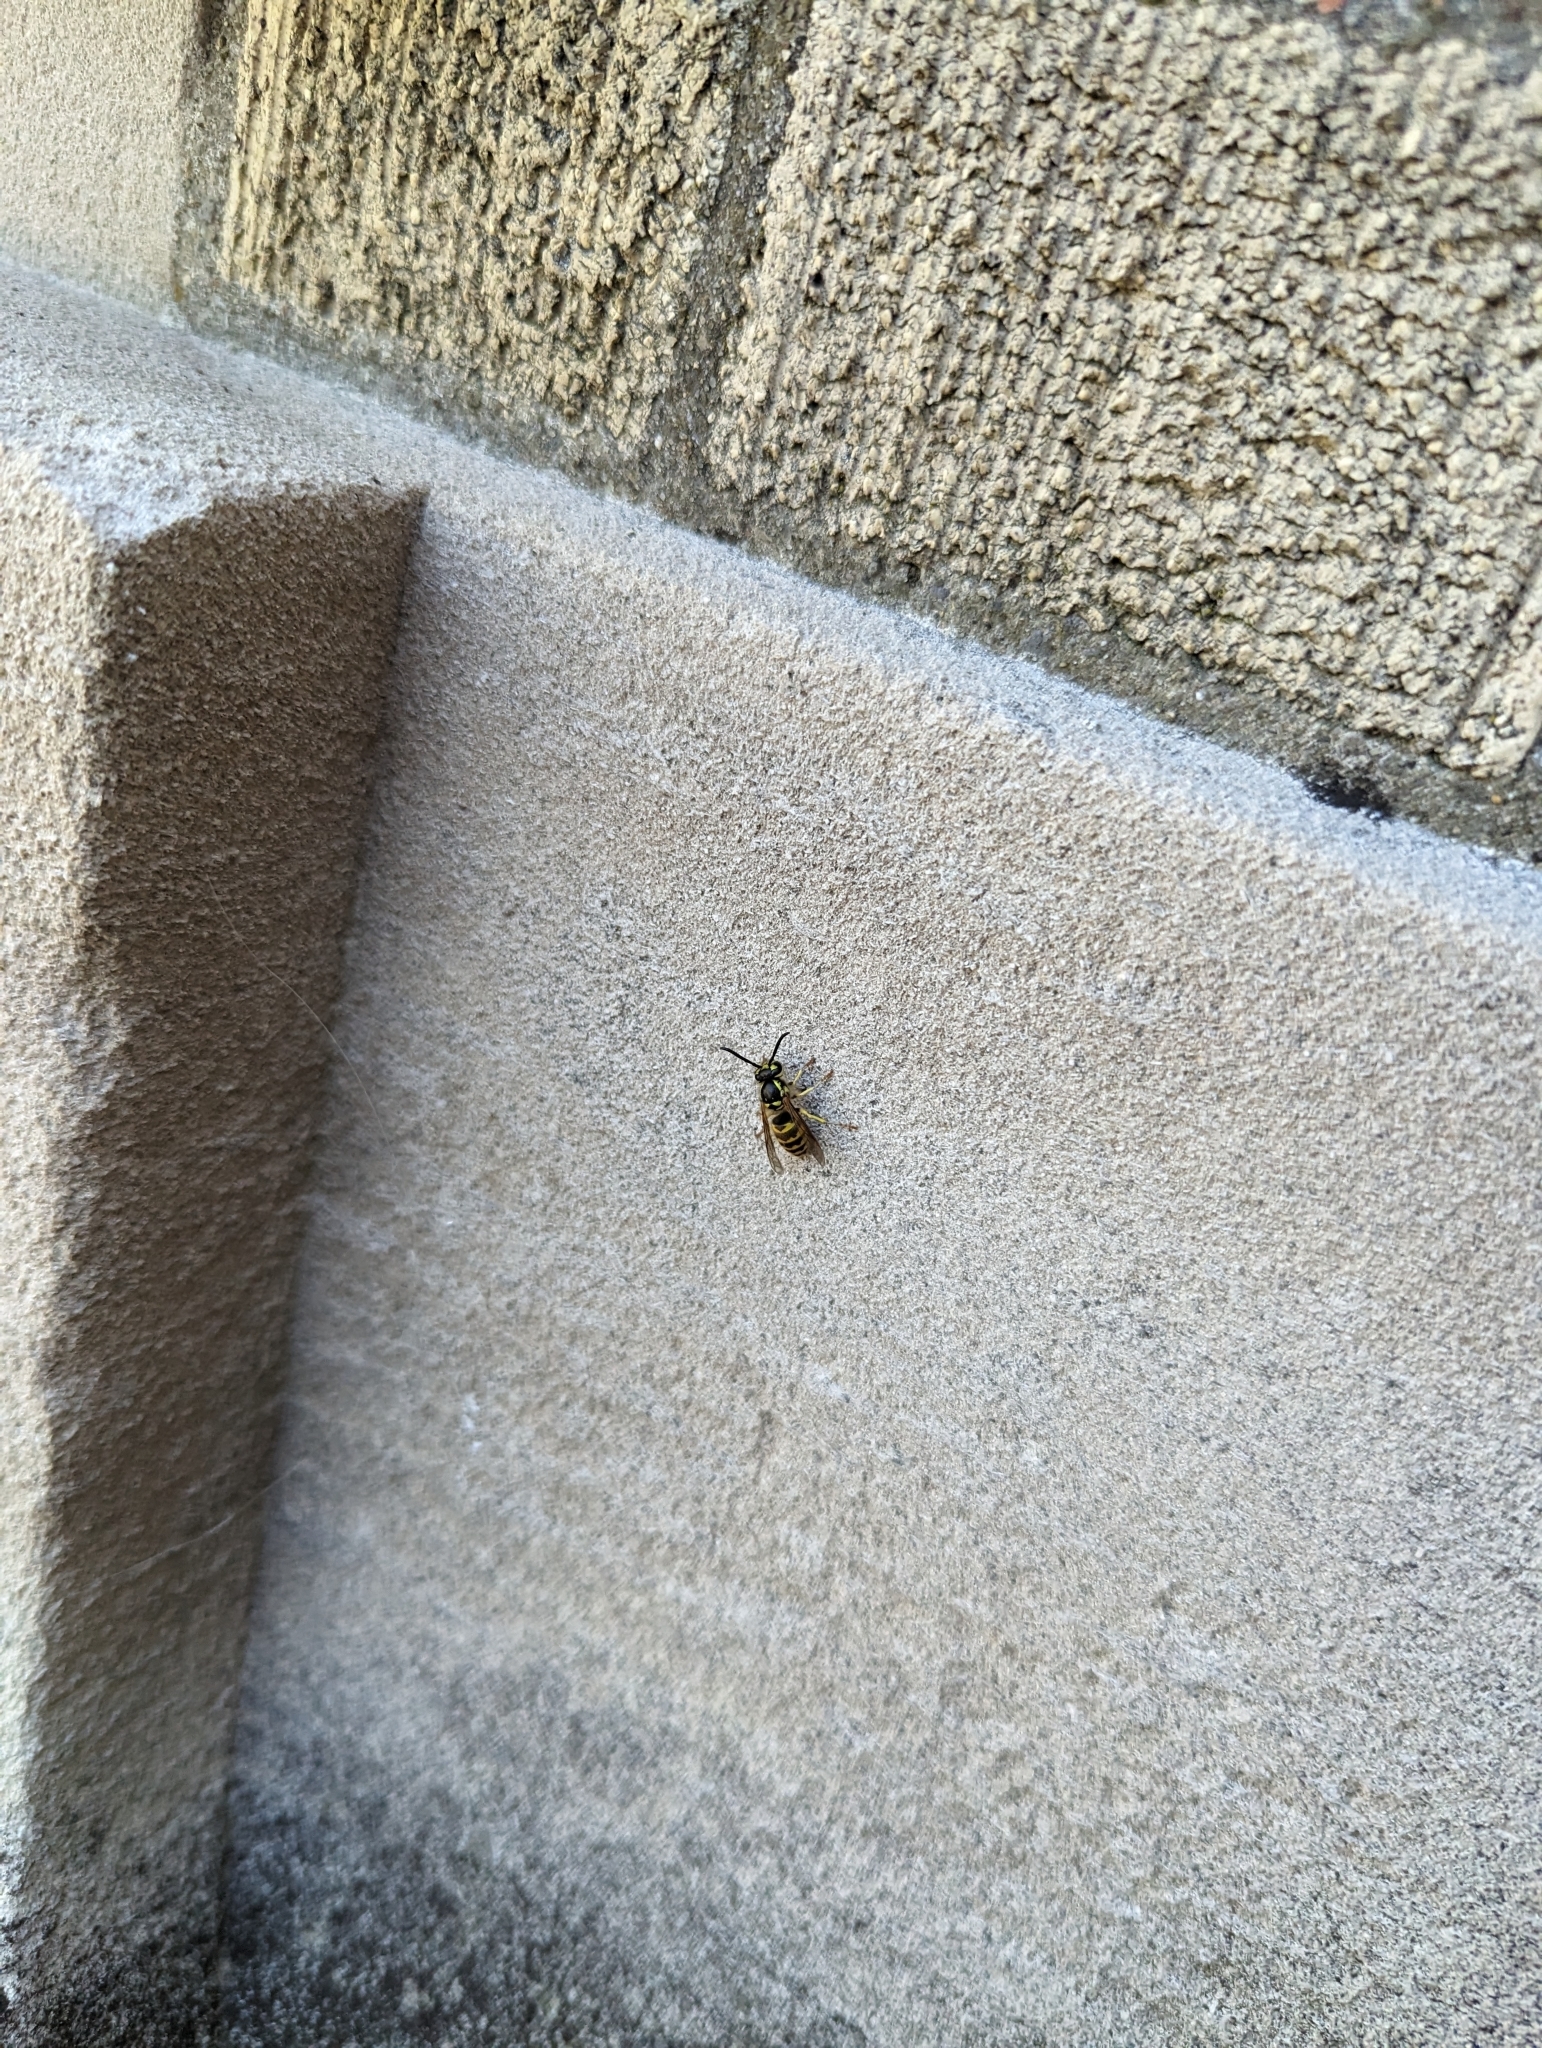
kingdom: Animalia
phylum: Arthropoda
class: Insecta
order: Hymenoptera
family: Vespidae
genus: Vespula
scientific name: Vespula flavopilosa
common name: Downy yellowjacket
